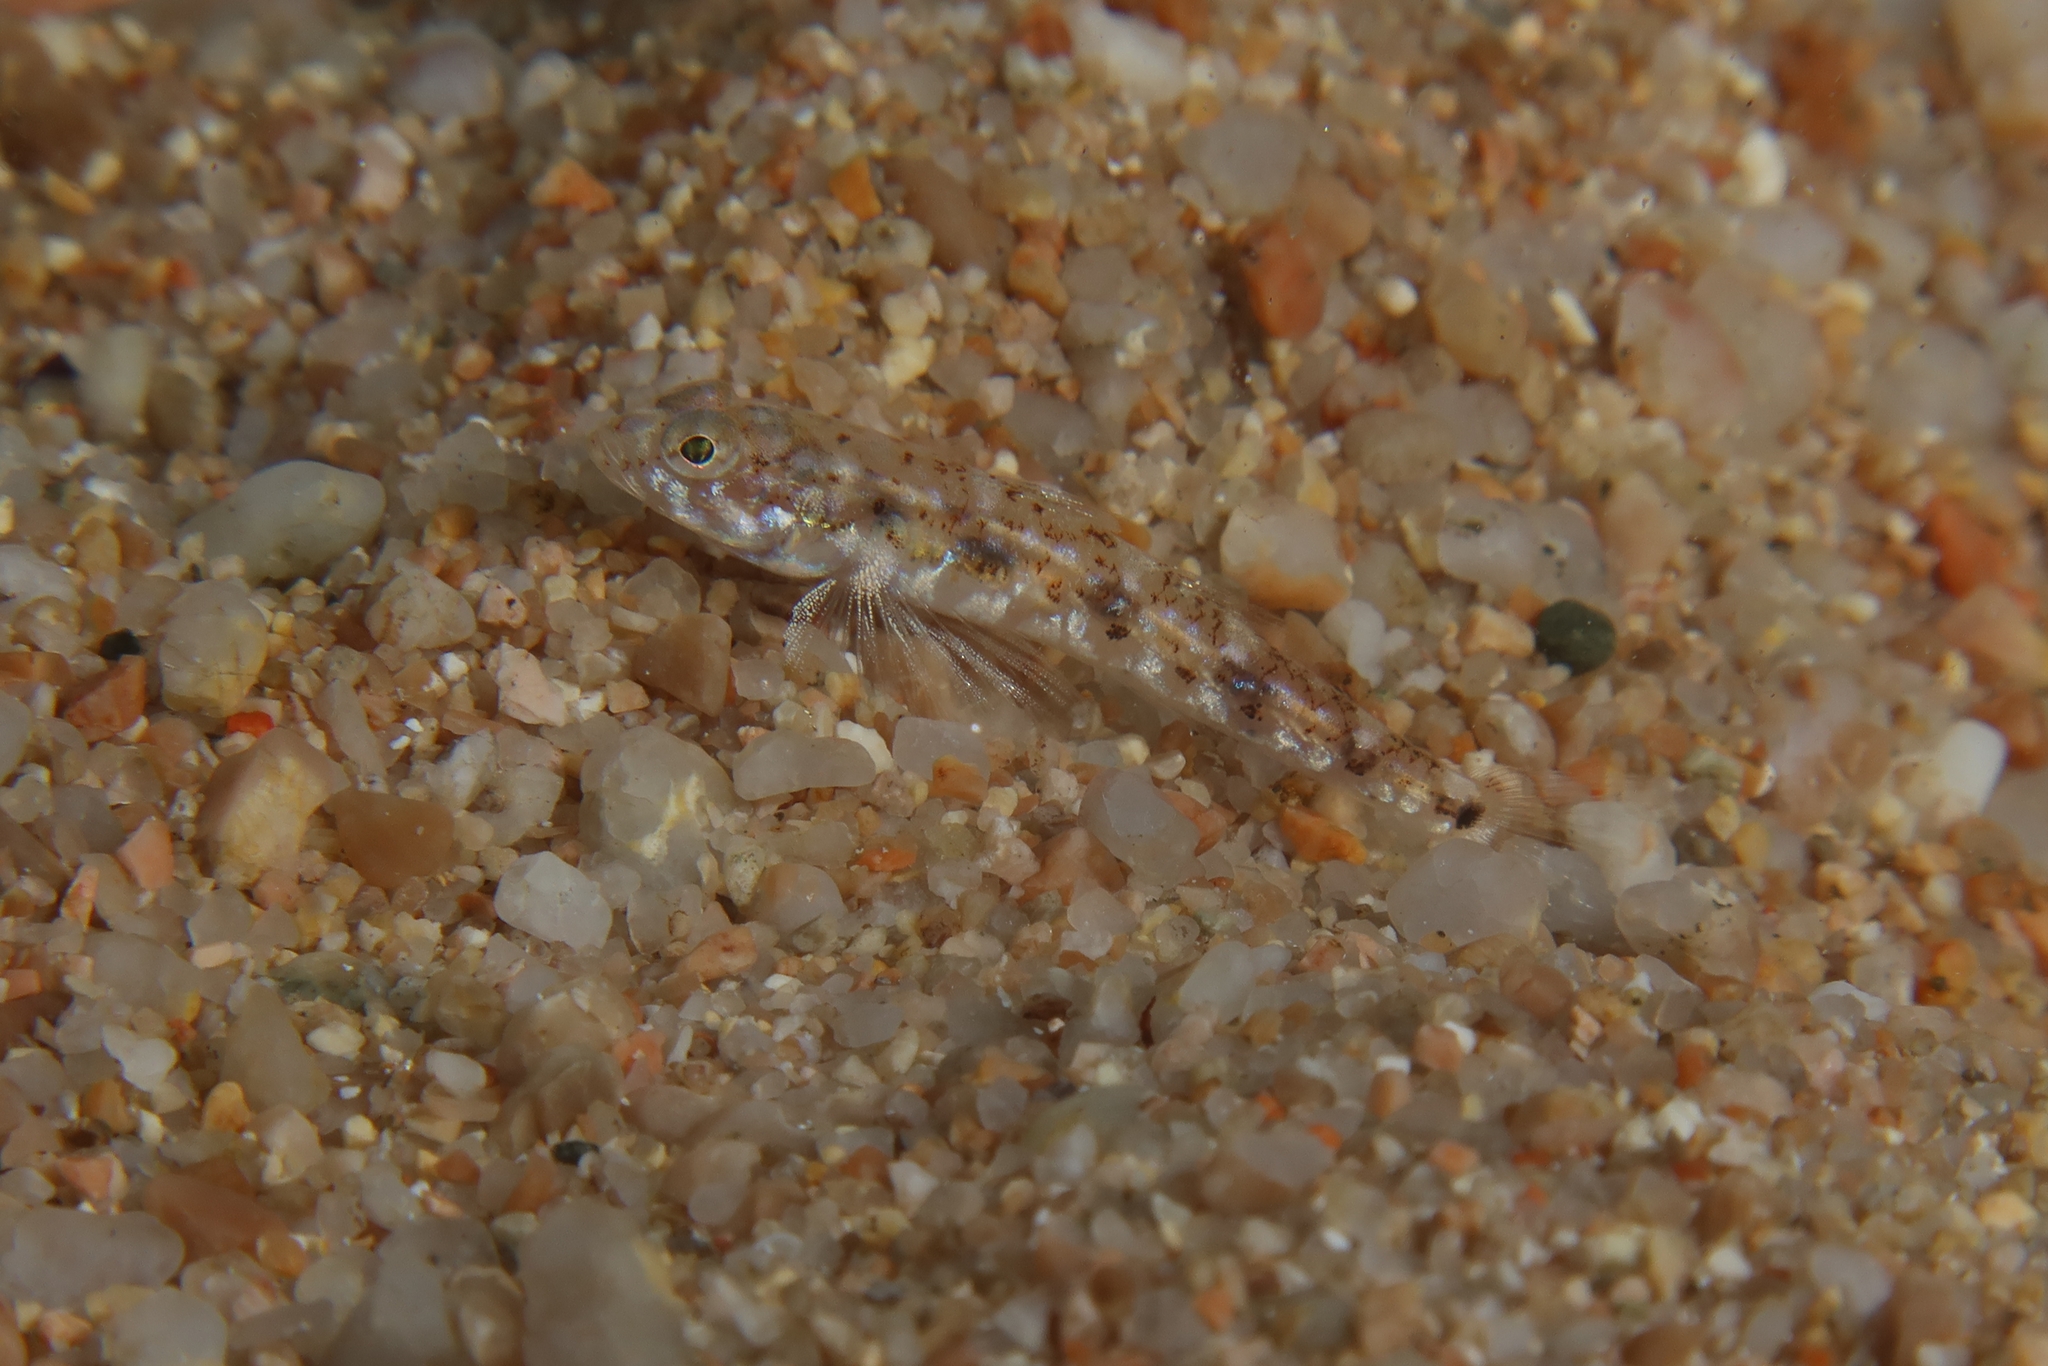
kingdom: Animalia
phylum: Chordata
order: Perciformes
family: Gobiidae
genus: Pomatoschistus
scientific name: Pomatoschistus marmoratus
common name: Marbled goby
